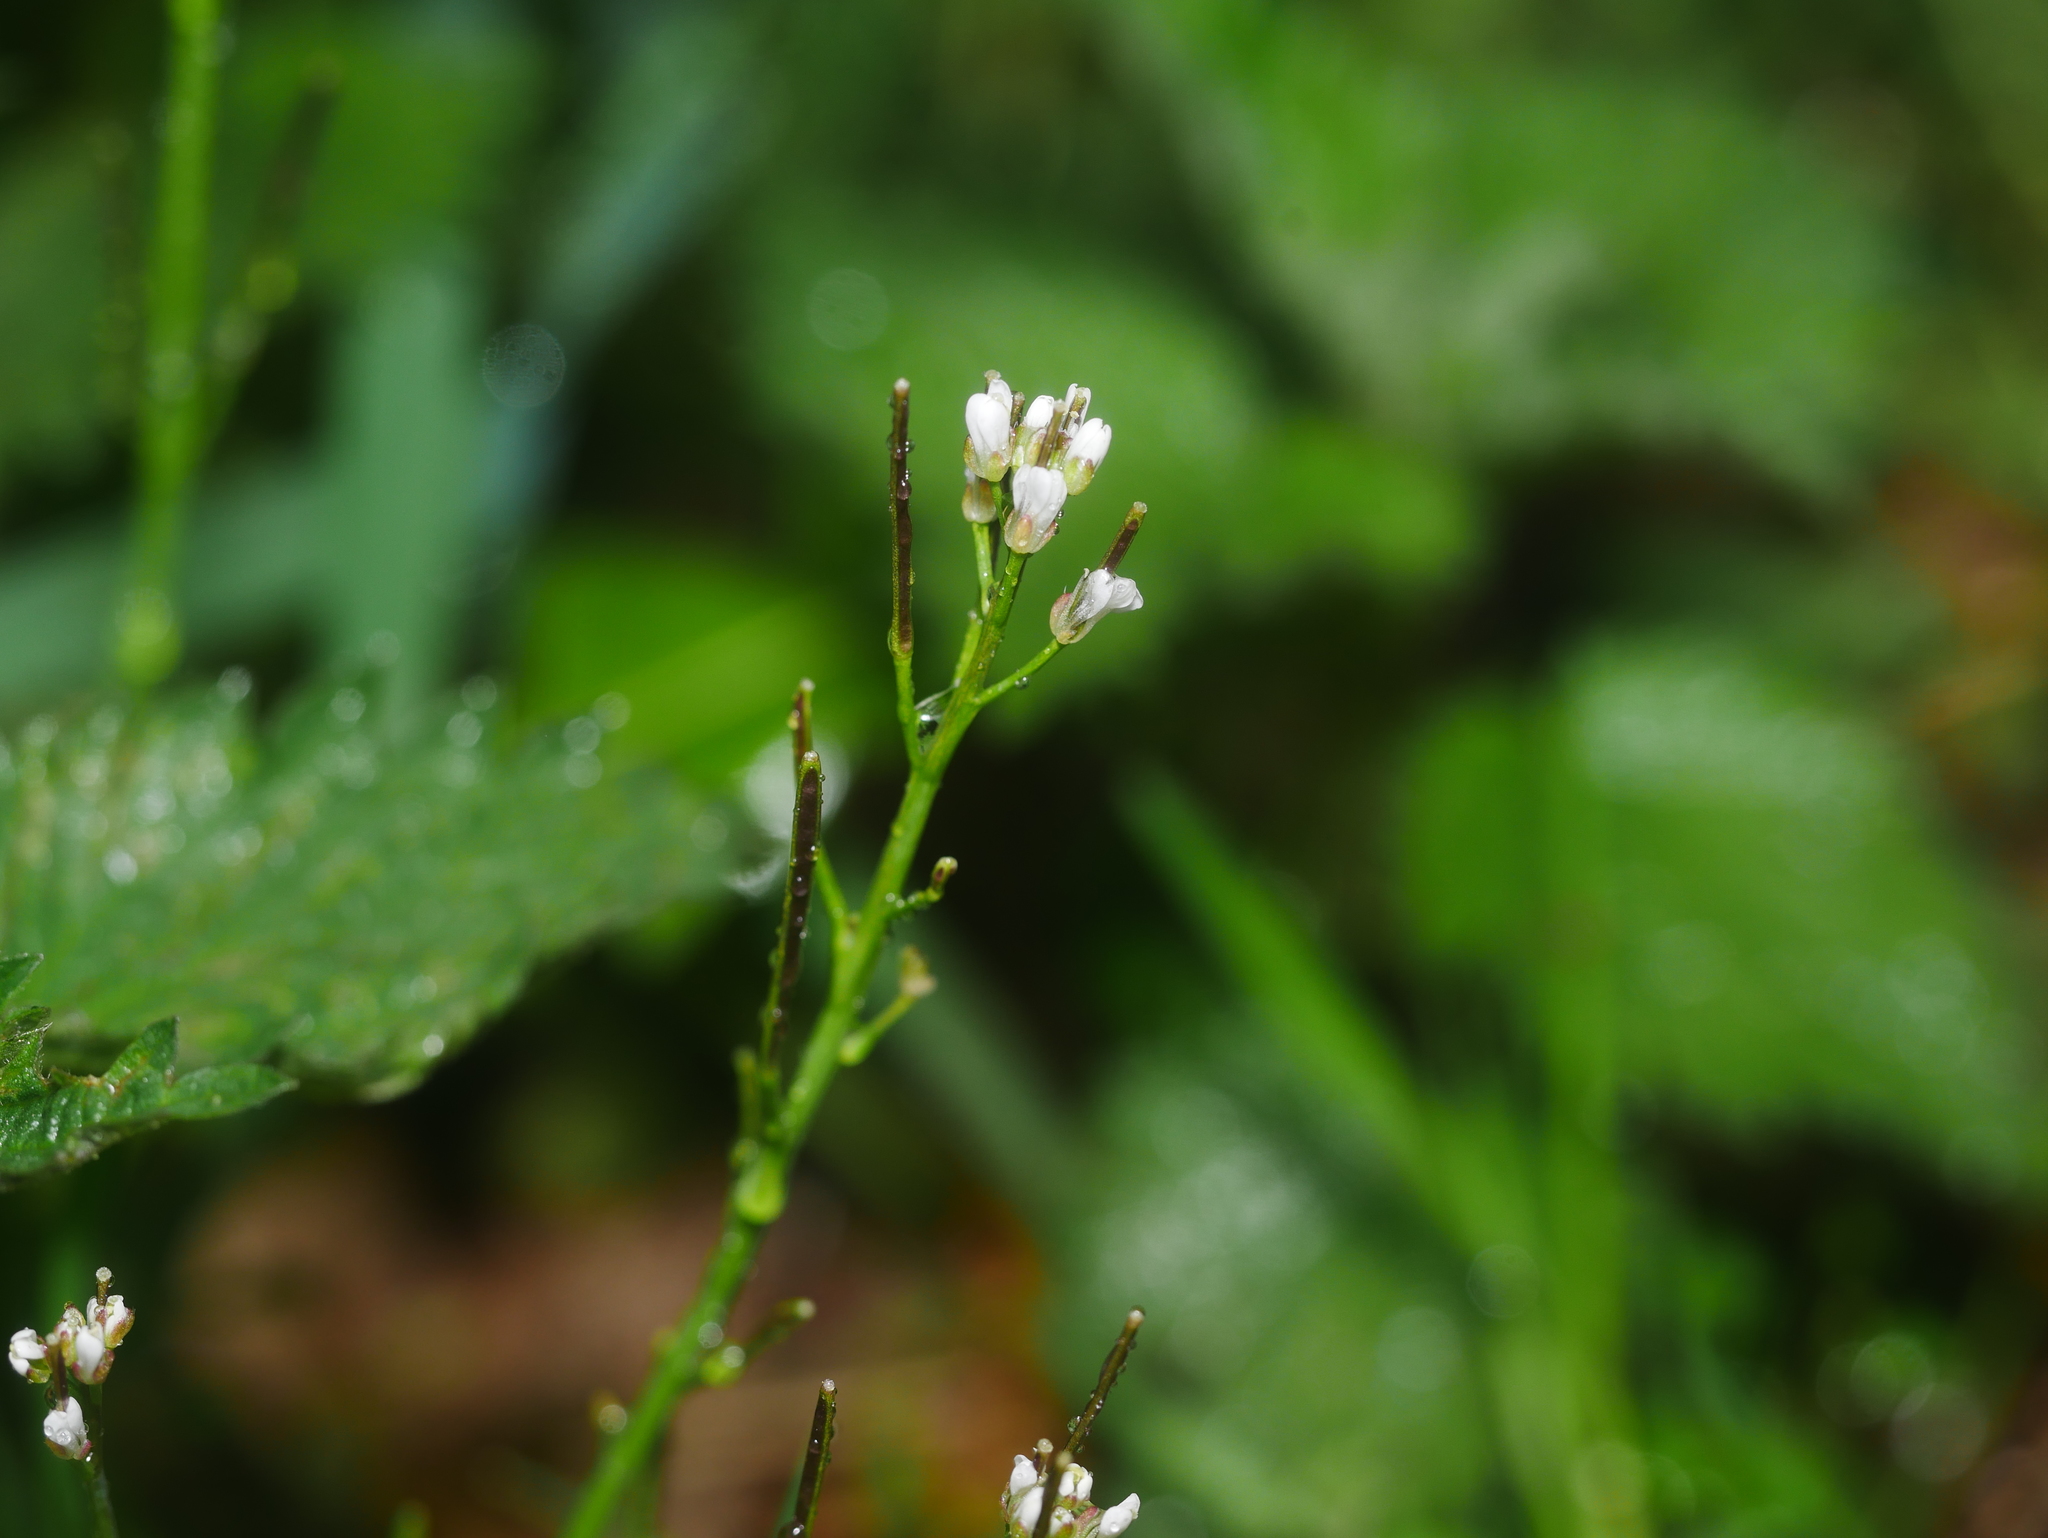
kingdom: Plantae
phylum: Tracheophyta
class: Magnoliopsida
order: Brassicales
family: Brassicaceae
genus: Cardamine
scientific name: Cardamine hirsuta
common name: Hairy bittercress
